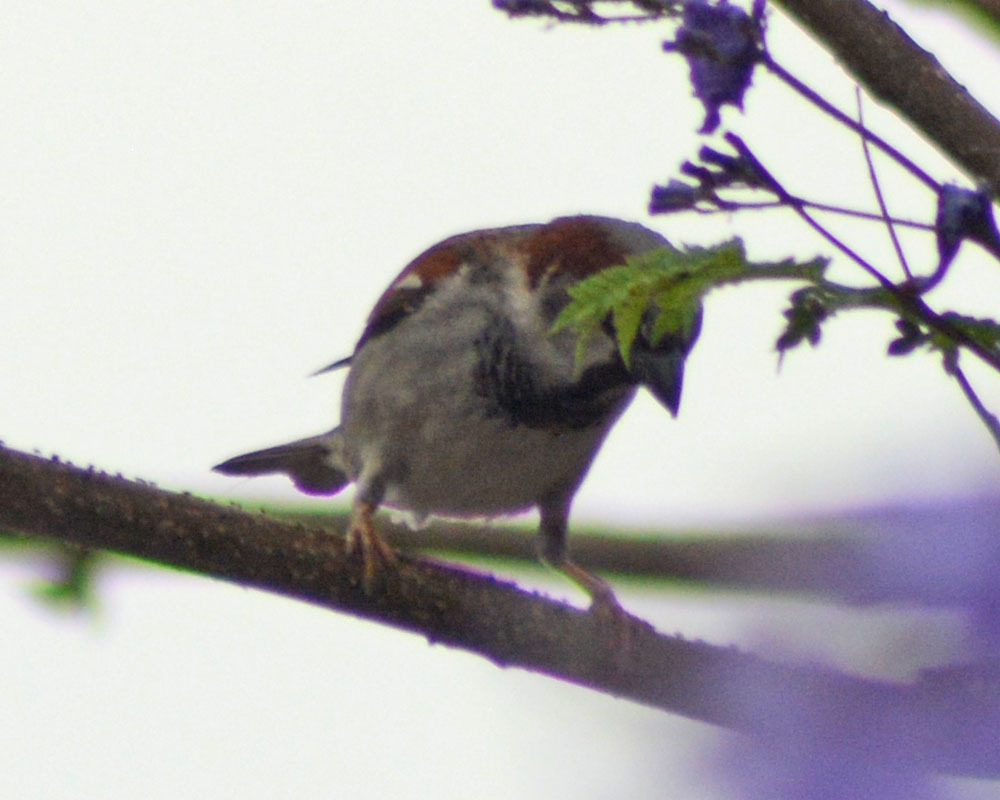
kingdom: Animalia
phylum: Chordata
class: Aves
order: Passeriformes
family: Passeridae
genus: Passer
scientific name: Passer domesticus
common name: House sparrow
